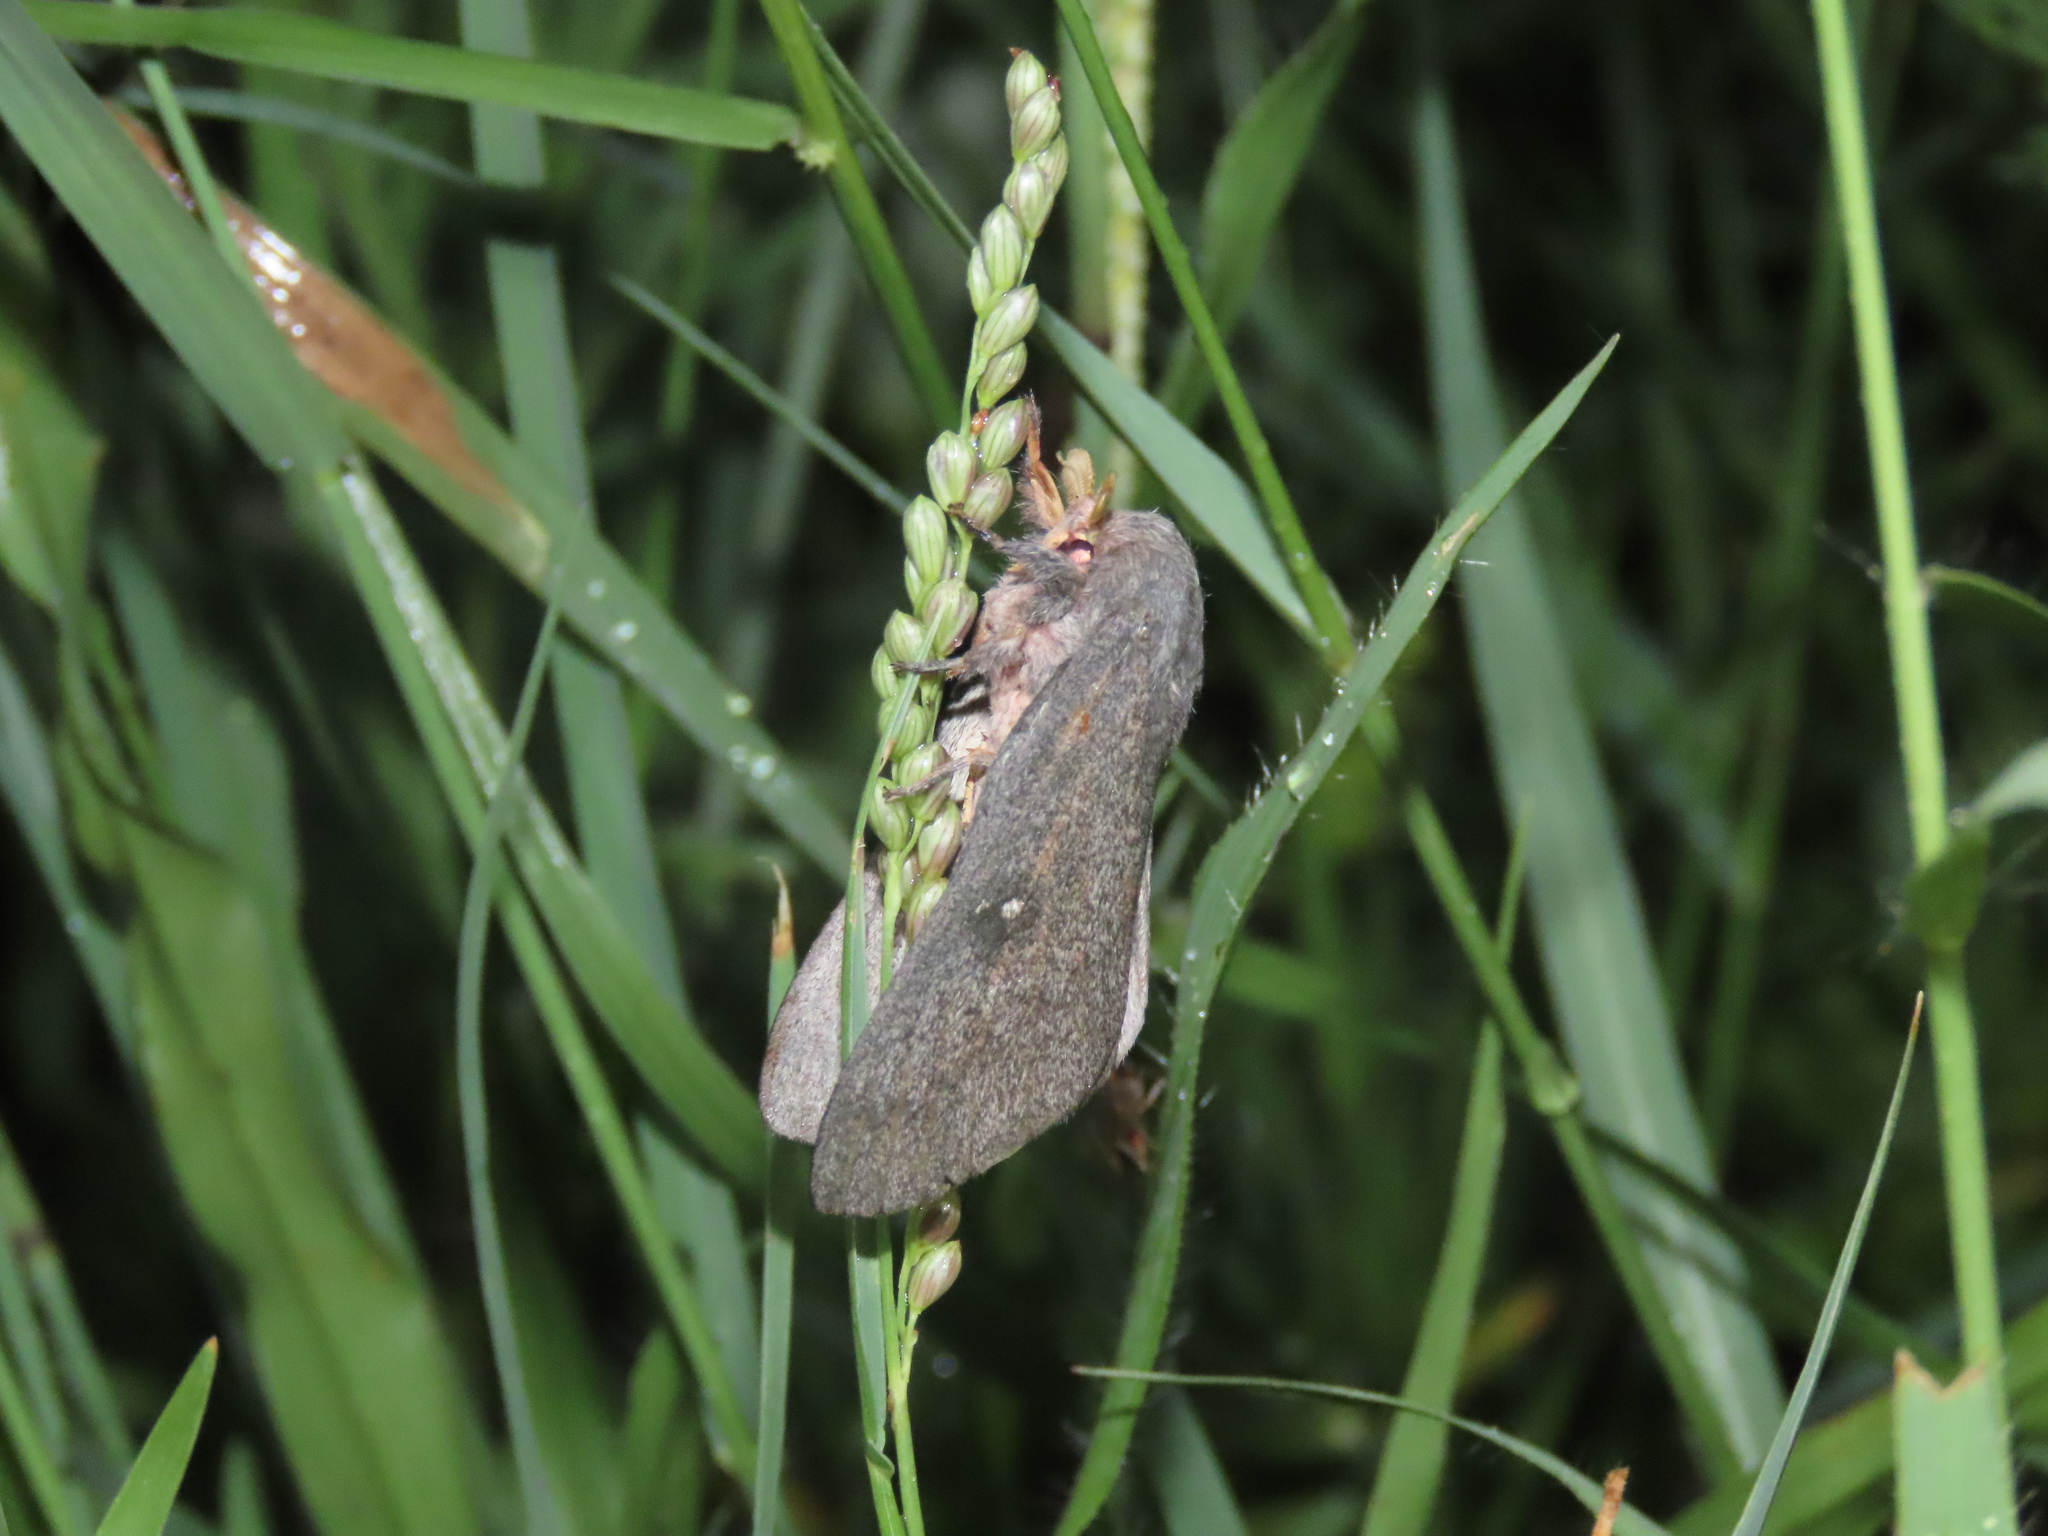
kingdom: Animalia
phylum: Arthropoda
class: Insecta
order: Lepidoptera
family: Saturniidae
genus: Syssphinx
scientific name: Syssphinx hubbardi
